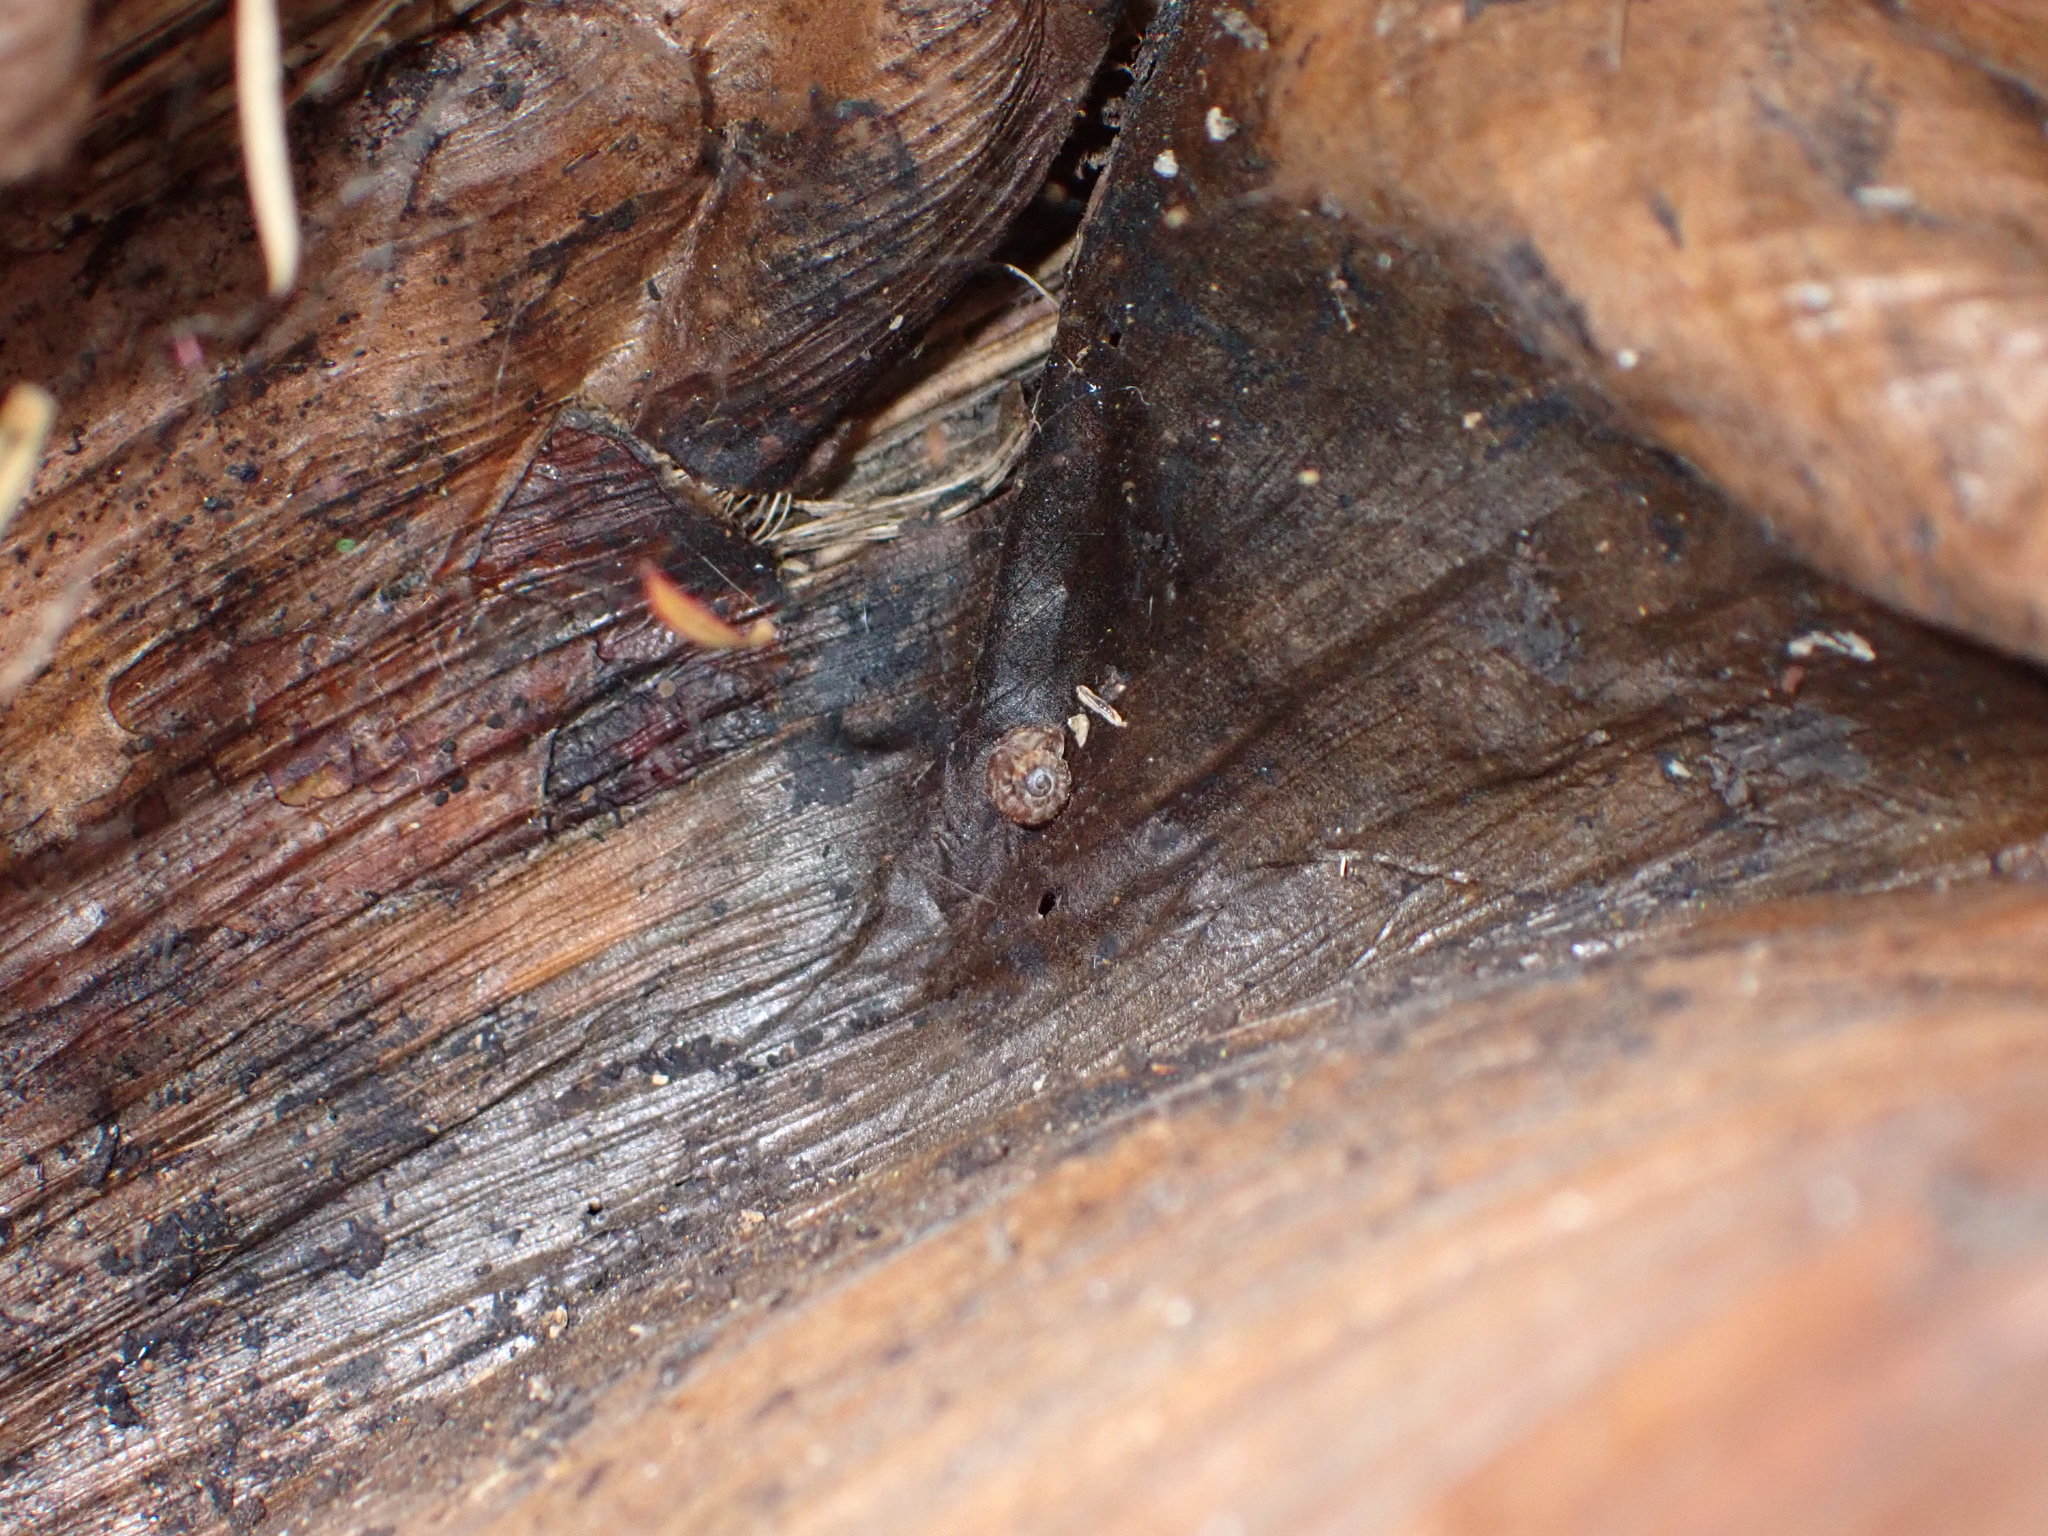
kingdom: Animalia
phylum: Mollusca
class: Gastropoda
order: Stylommatophora
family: Charopidae
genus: Phenacohelix
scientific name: Phenacohelix ponsonbyi
